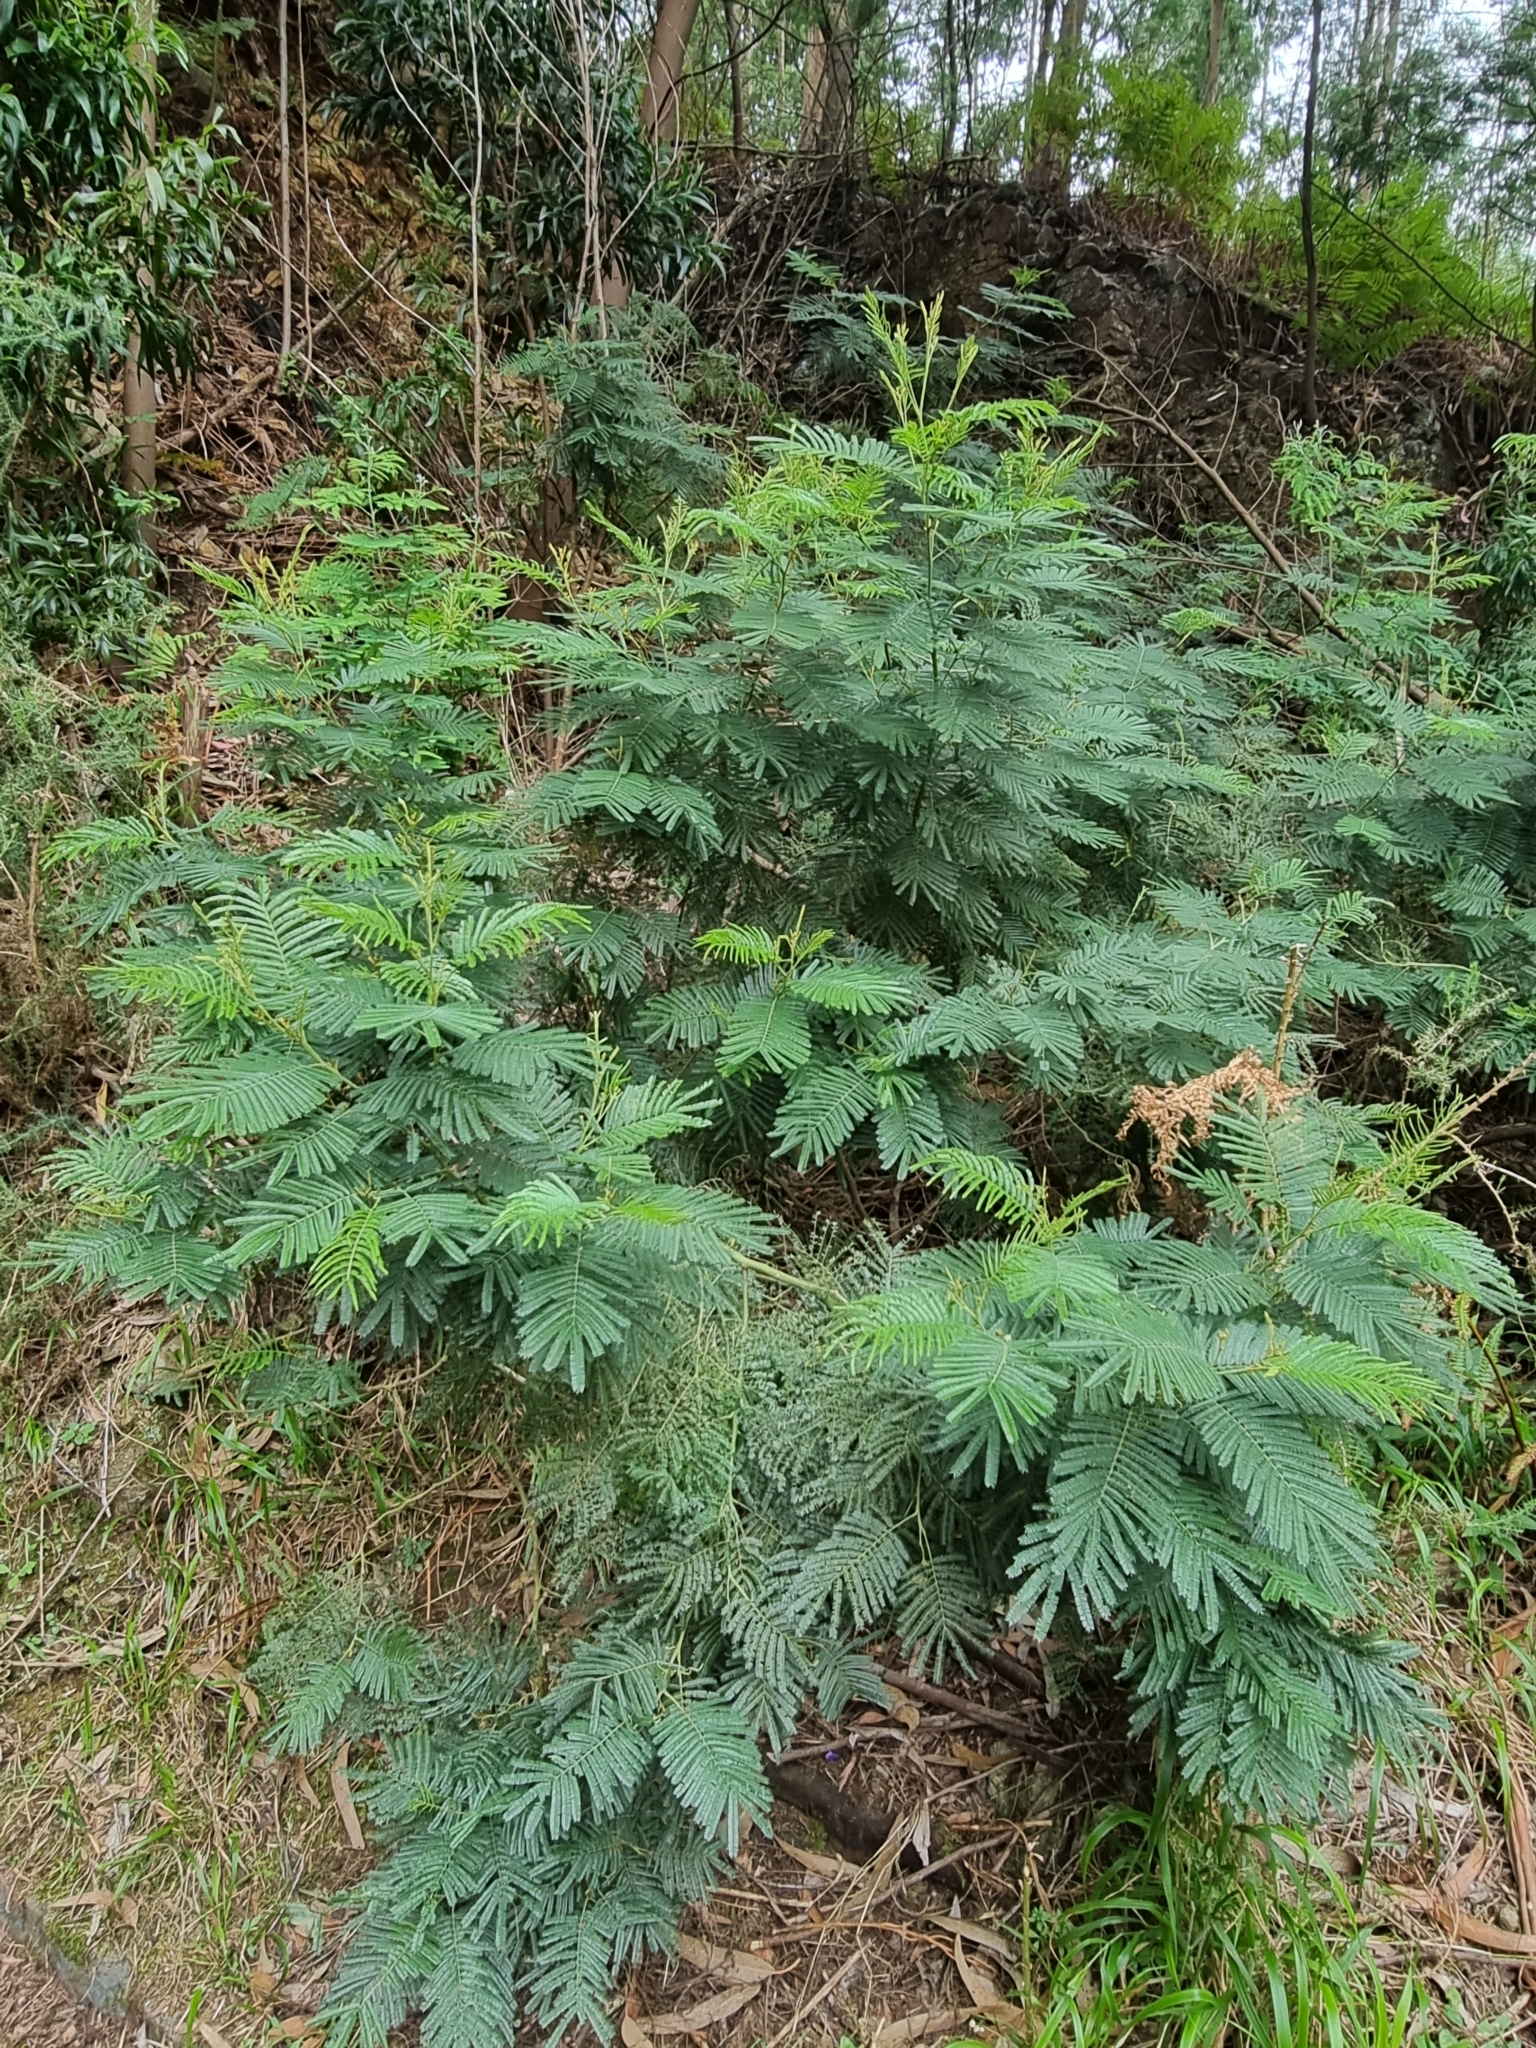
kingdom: Plantae
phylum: Tracheophyta
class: Magnoliopsida
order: Fabales
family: Fabaceae
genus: Acacia
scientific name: Acacia mearnsii
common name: Black wattle
